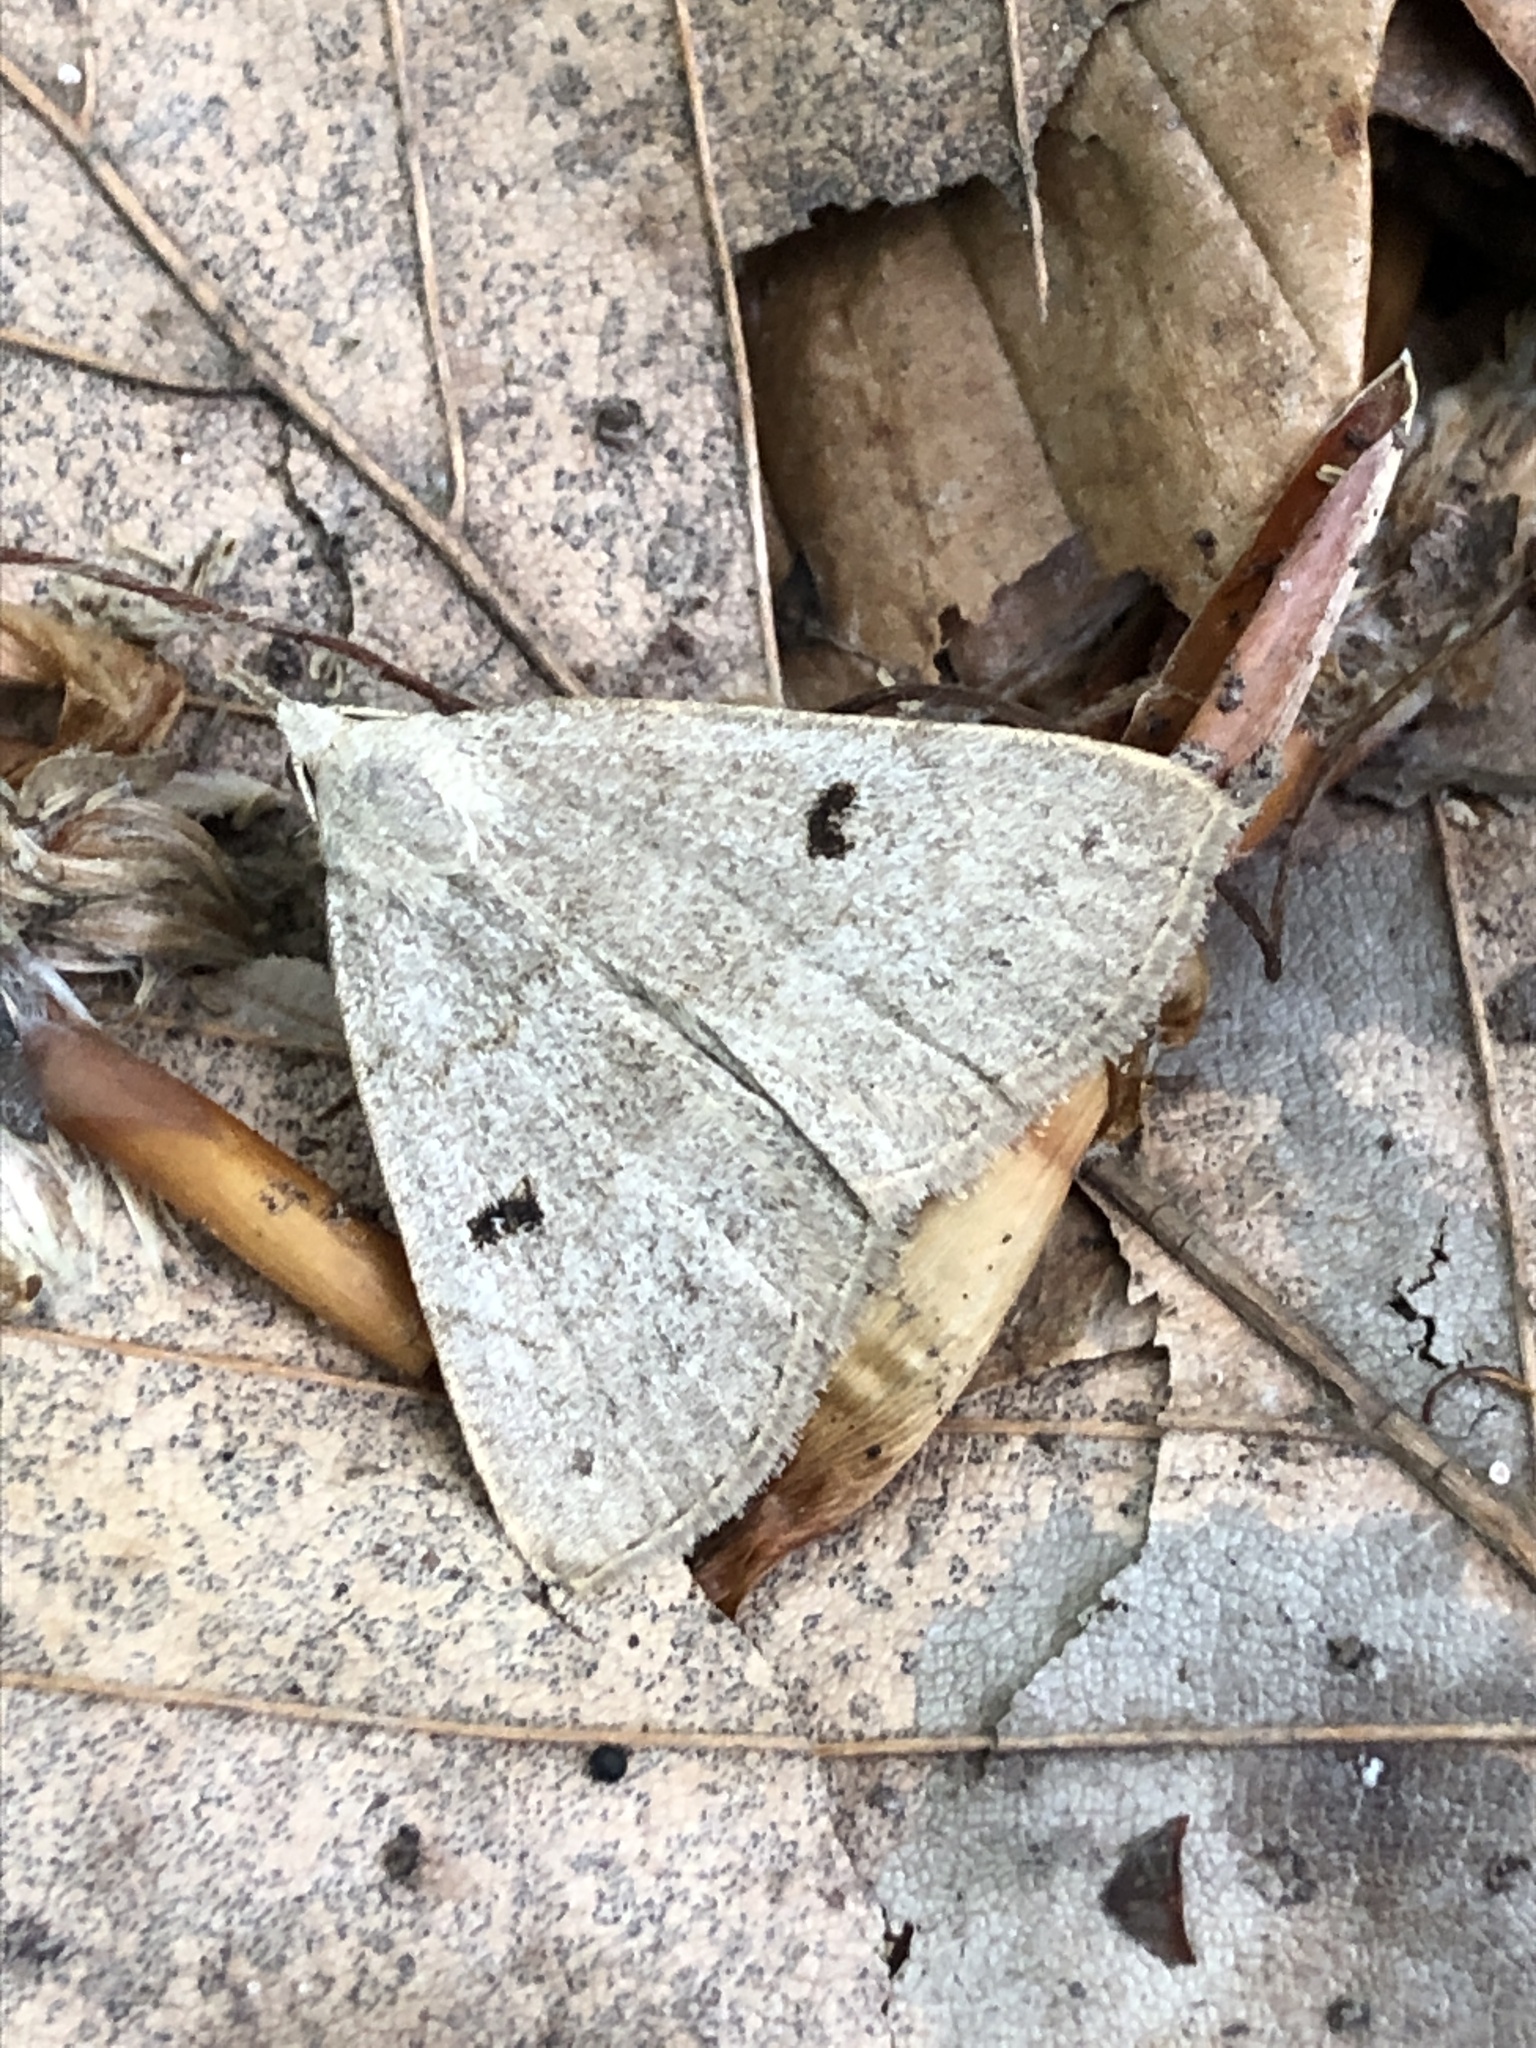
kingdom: Animalia
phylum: Arthropoda
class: Insecta
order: Lepidoptera
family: Erebidae
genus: Macrochilo
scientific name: Macrochilo morbidalis
